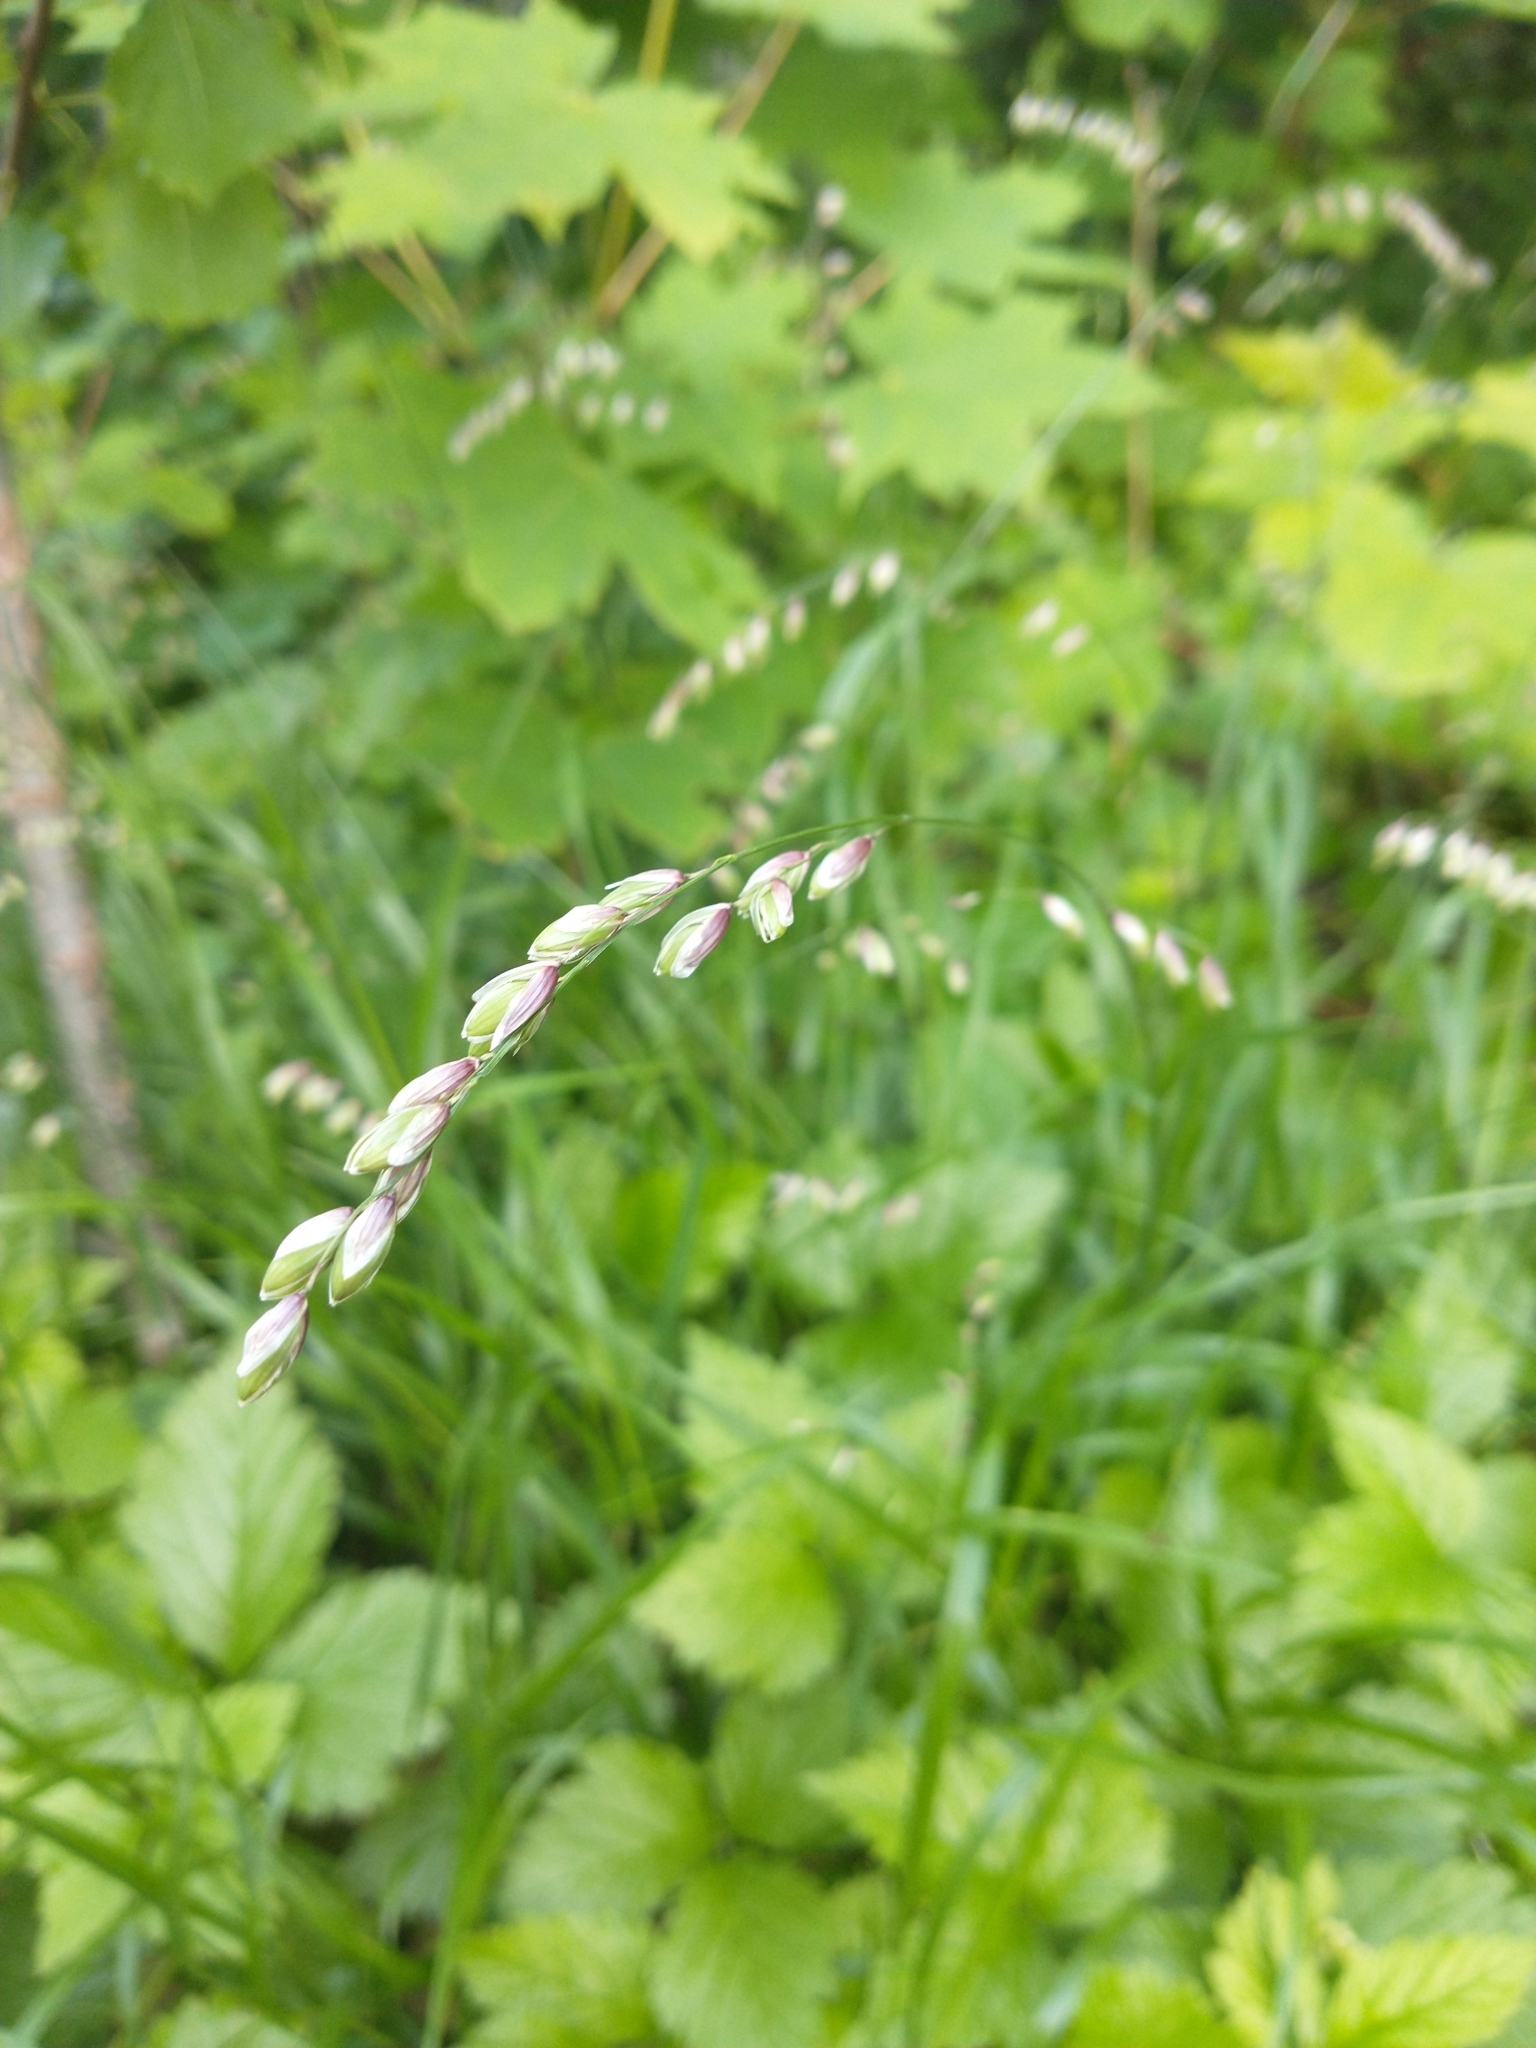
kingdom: Plantae
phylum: Tracheophyta
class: Liliopsida
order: Poales
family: Poaceae
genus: Melica
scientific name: Melica nutans
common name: Mountain melick
